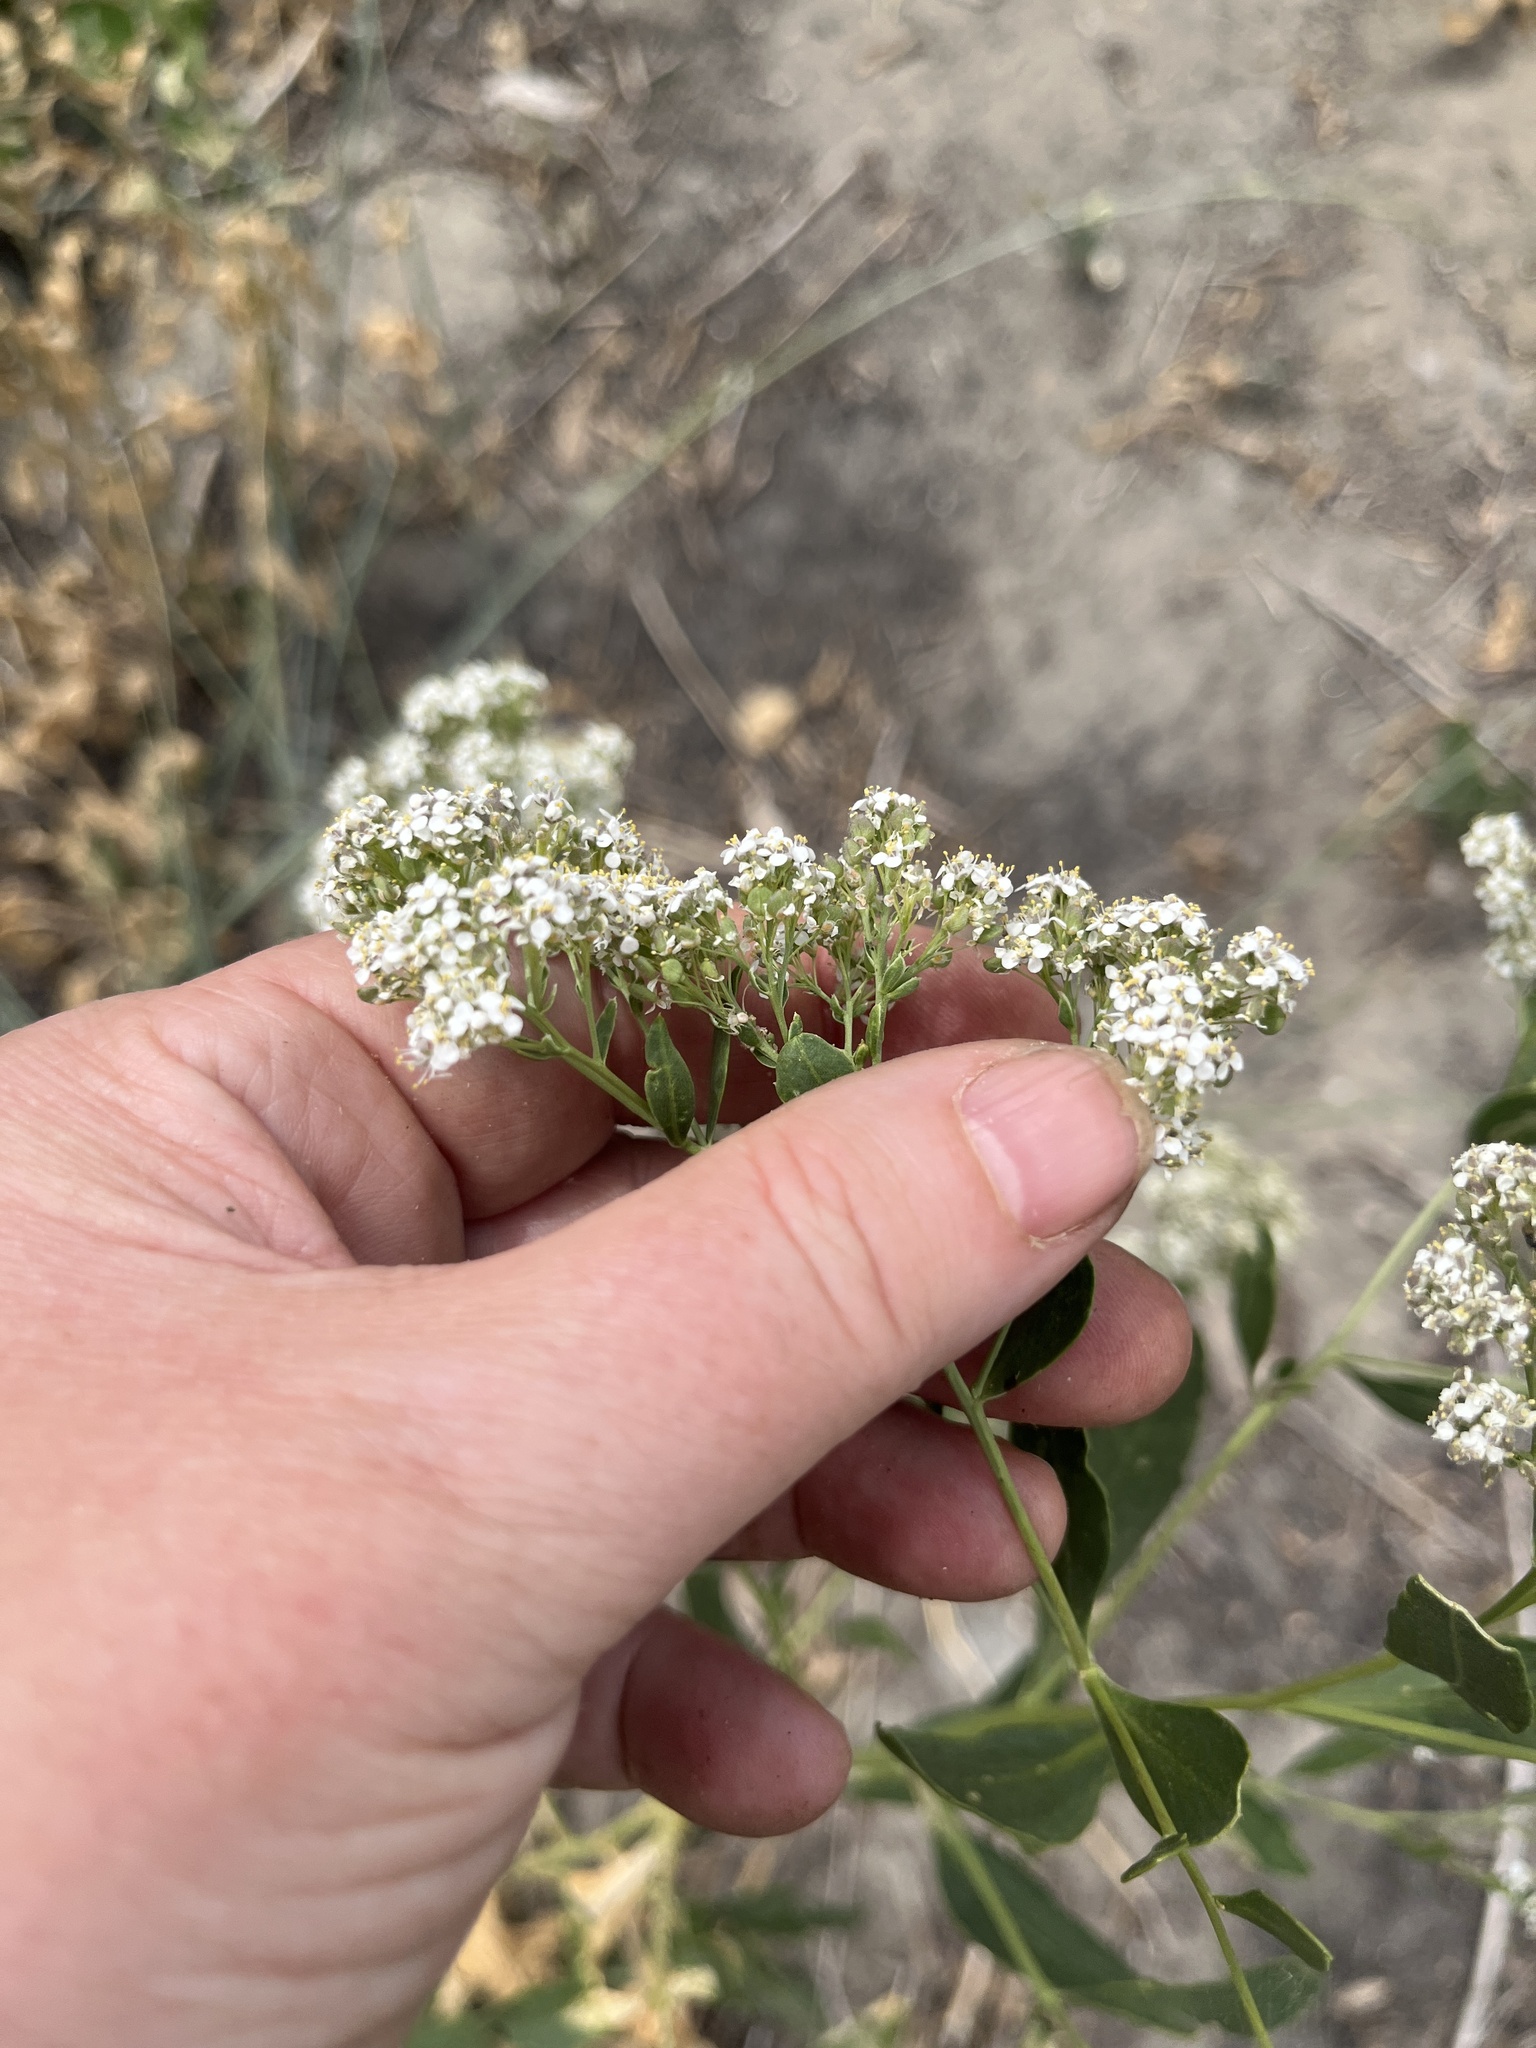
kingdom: Plantae
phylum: Tracheophyta
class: Magnoliopsida
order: Brassicales
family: Brassicaceae
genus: Lepidium
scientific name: Lepidium latifolium
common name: Dittander
